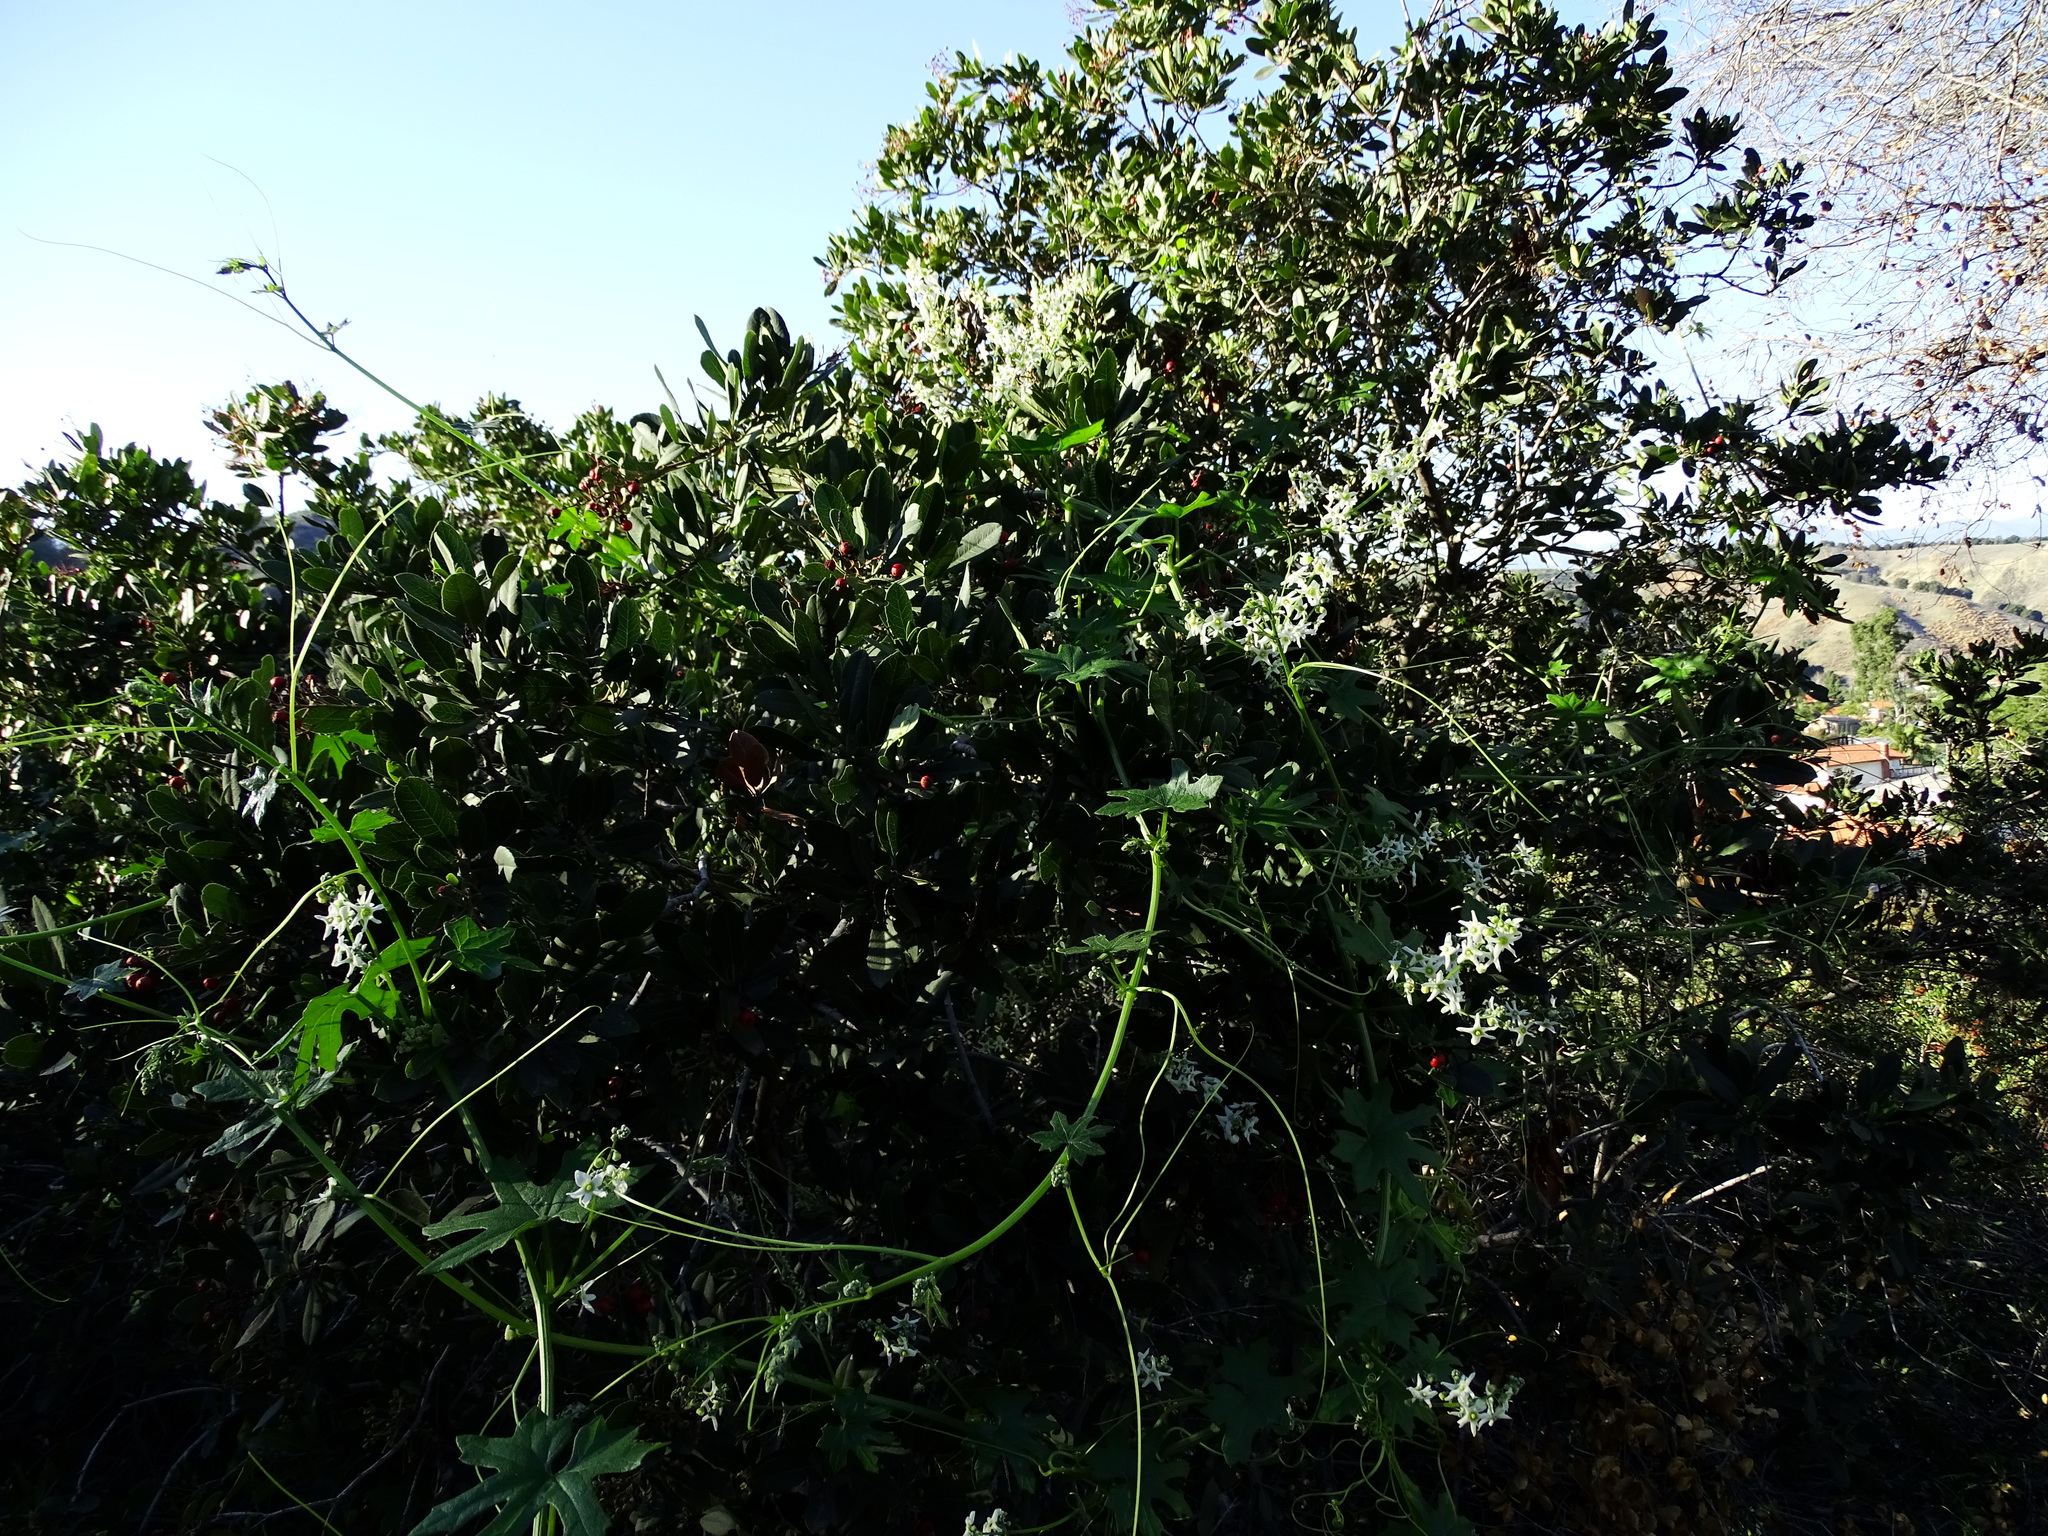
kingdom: Plantae
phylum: Tracheophyta
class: Magnoliopsida
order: Cucurbitales
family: Cucurbitaceae
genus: Marah
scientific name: Marah macrocarpa
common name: Cucamonga manroot
